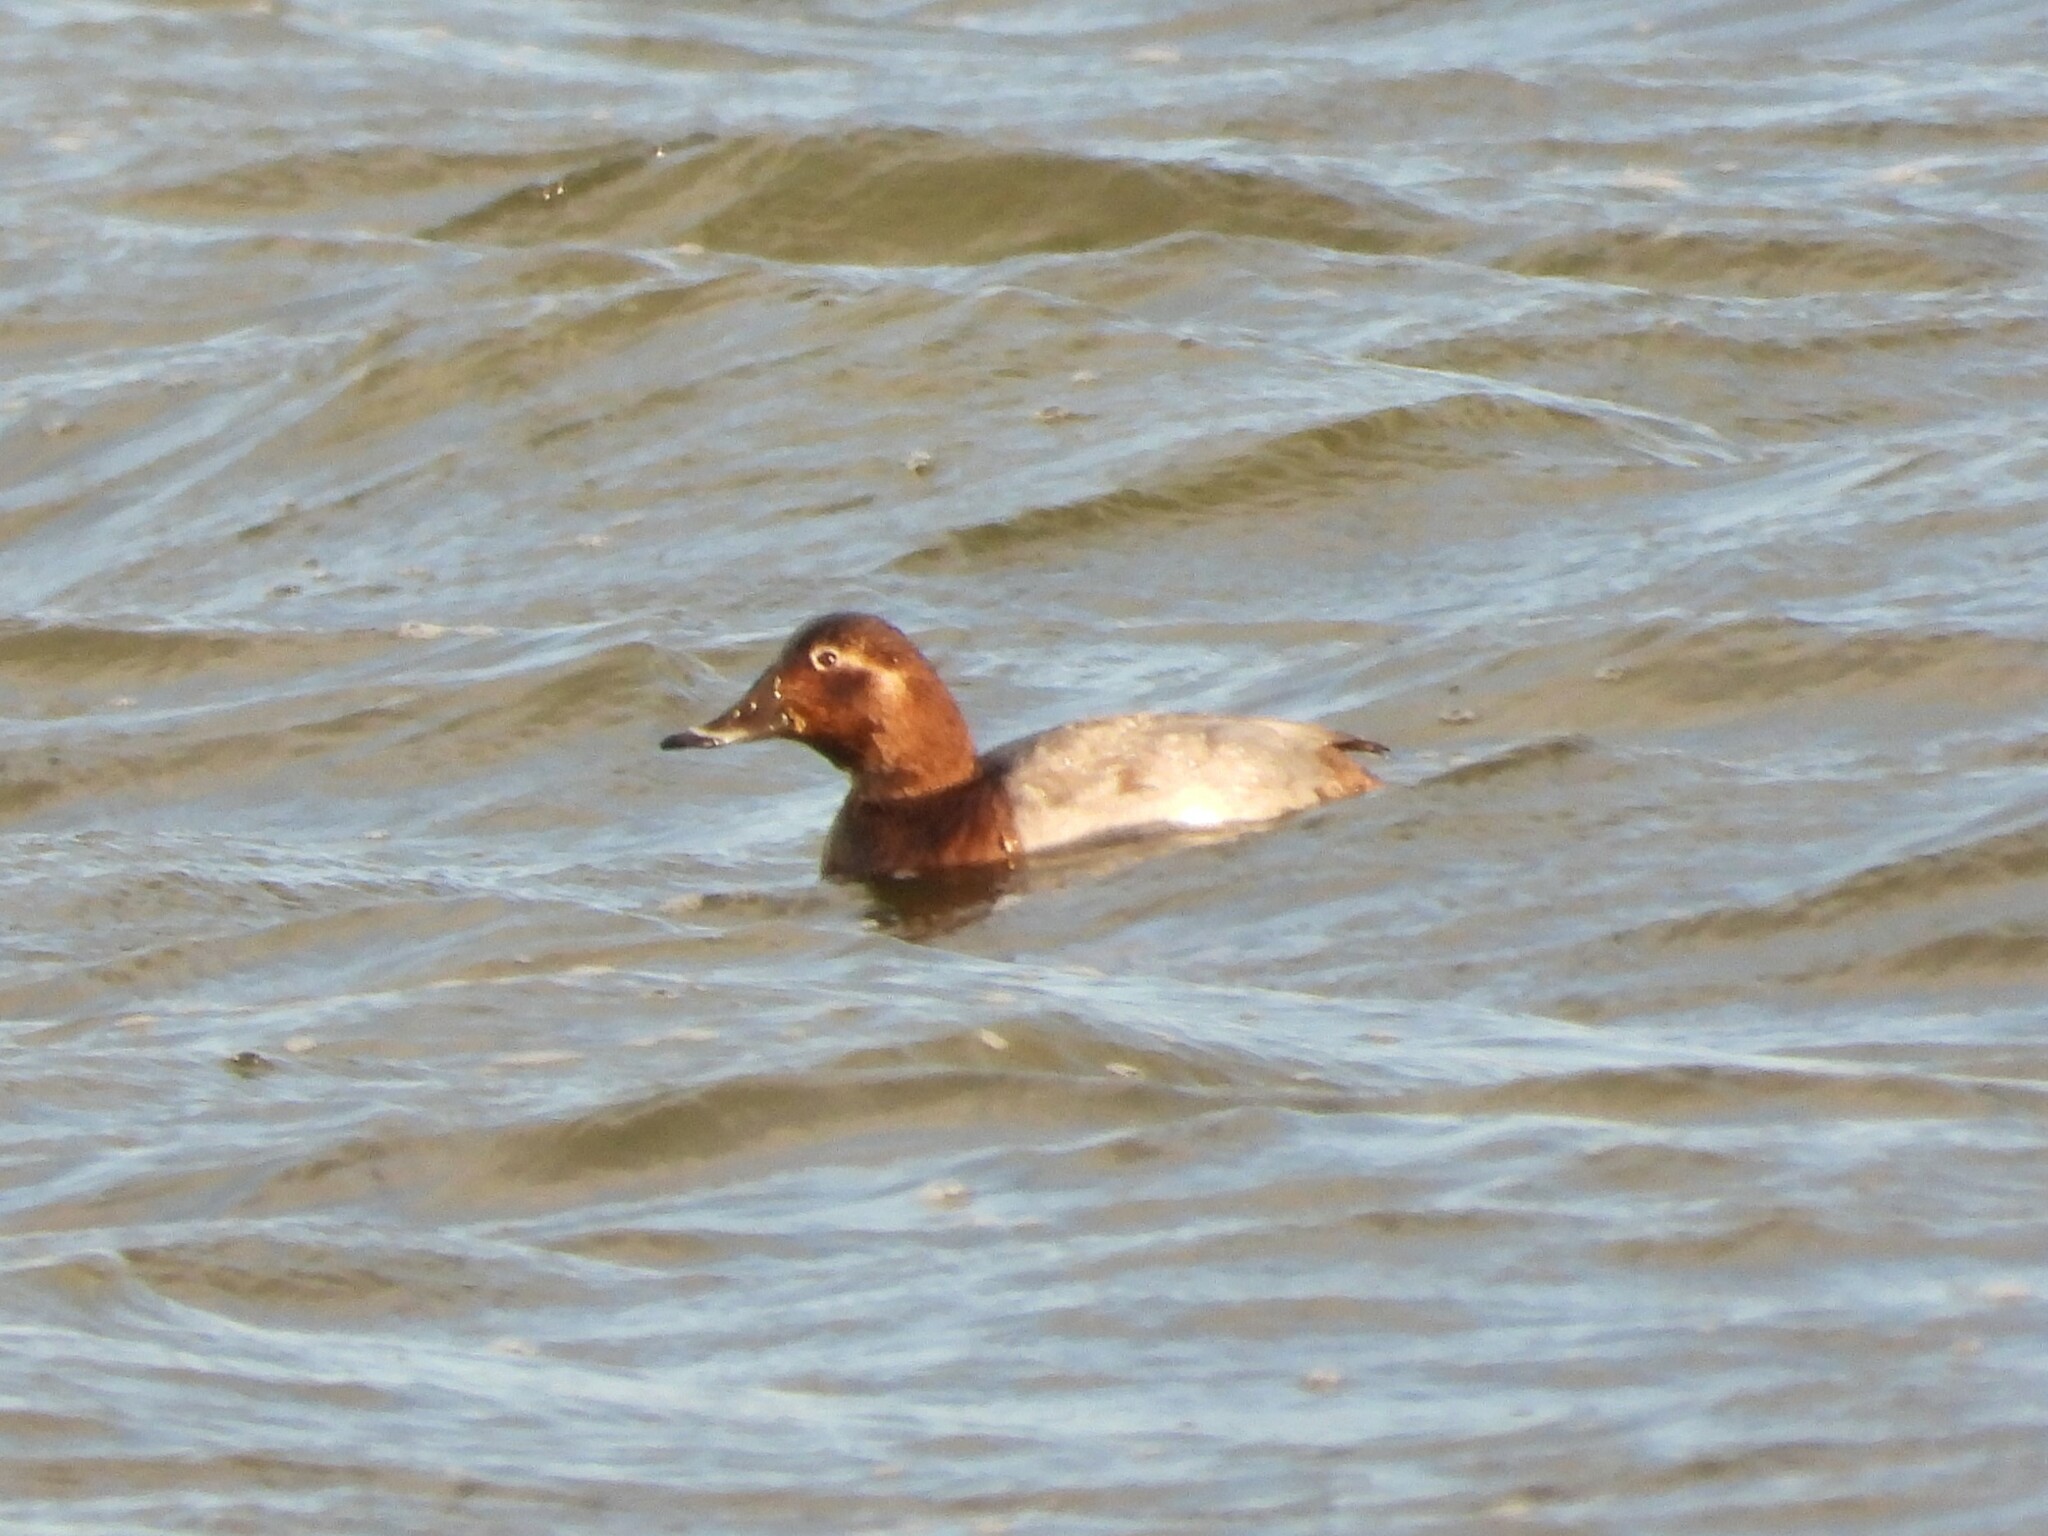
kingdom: Animalia
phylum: Chordata
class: Aves
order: Anseriformes
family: Anatidae
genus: Aythya
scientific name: Aythya ferina
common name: Common pochard
